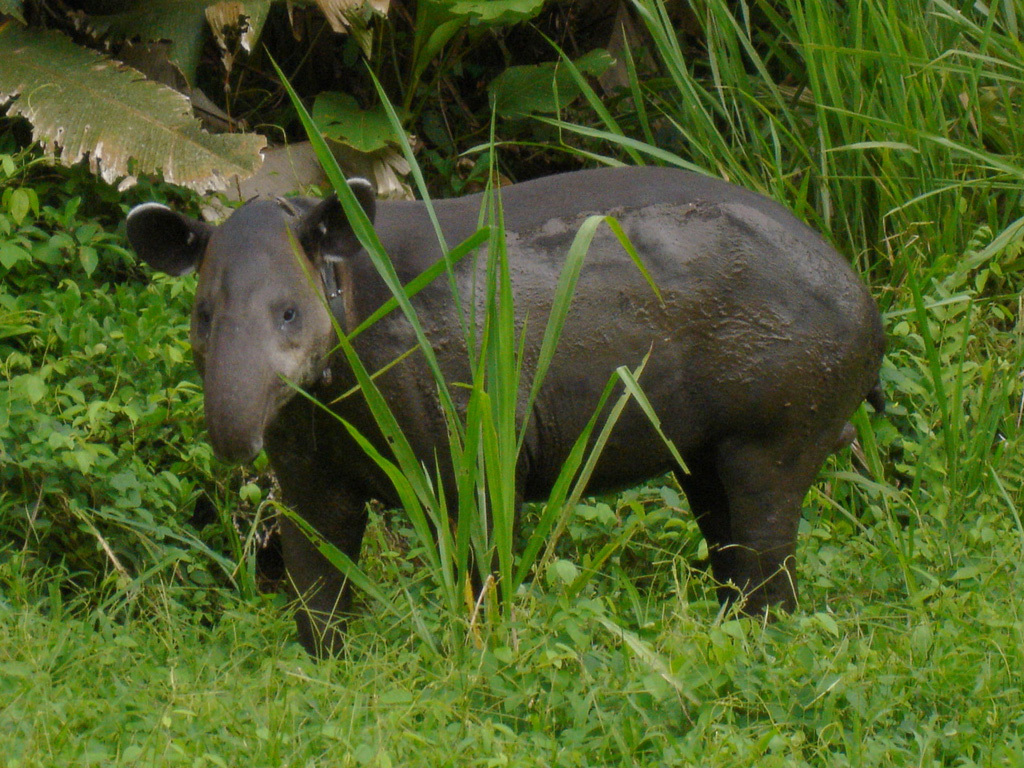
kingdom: Animalia
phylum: Chordata
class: Mammalia
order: Perissodactyla
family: Tapiridae
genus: Tapirella
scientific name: Tapirella bairdii
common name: Baird's tapir
